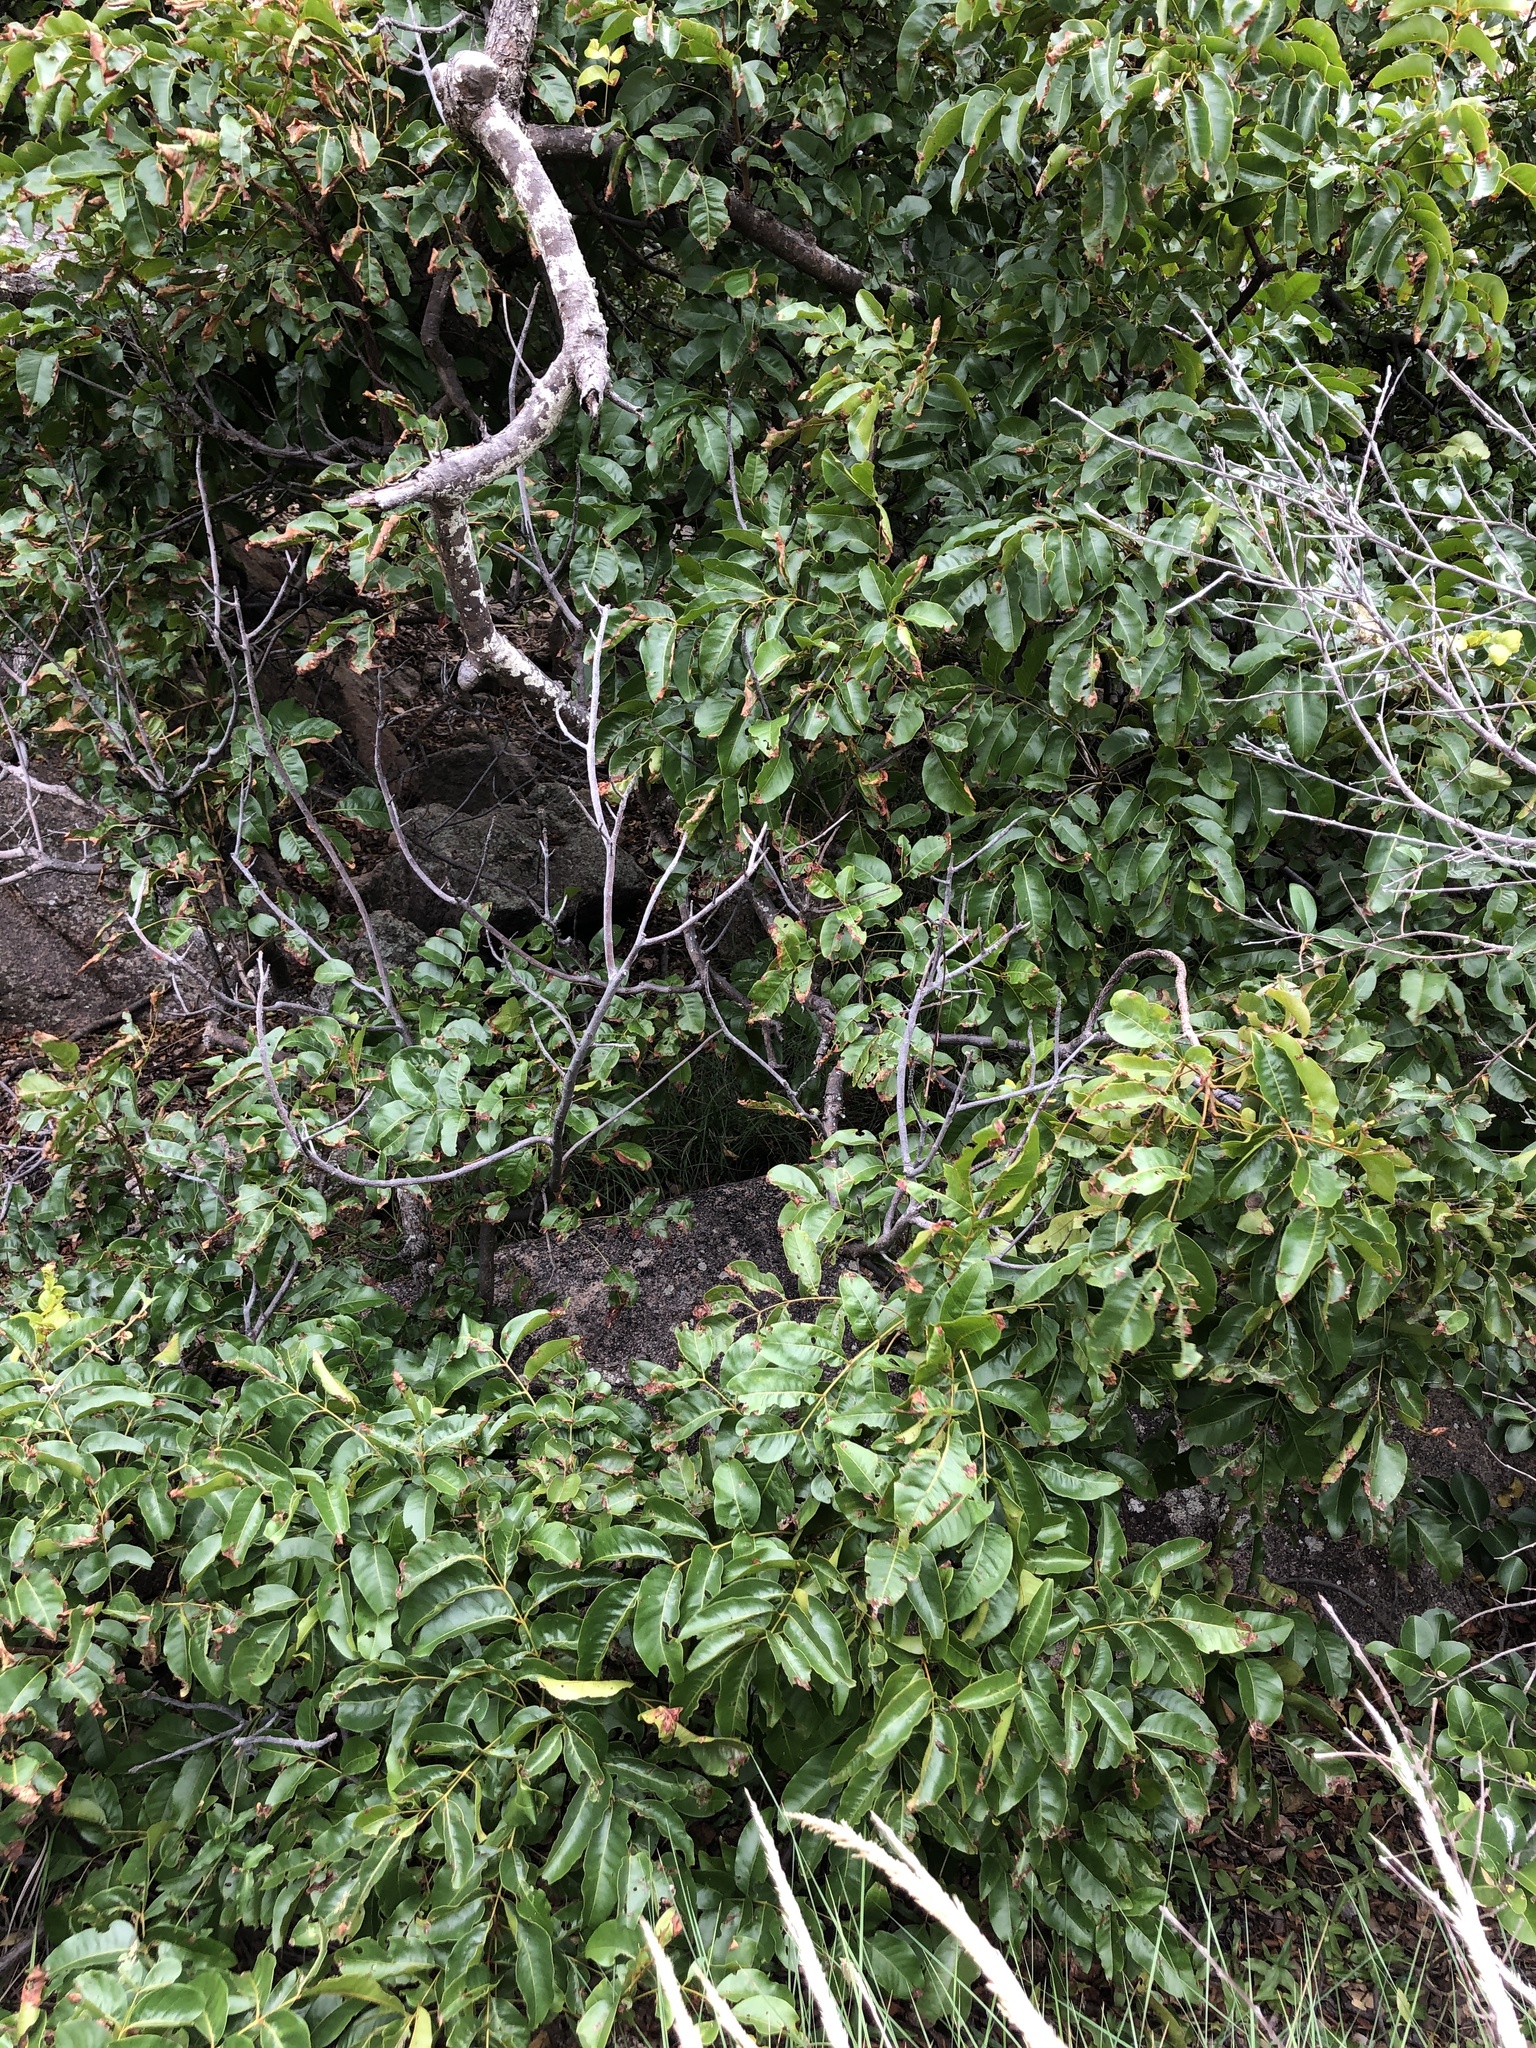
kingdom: Plantae
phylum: Tracheophyta
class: Magnoliopsida
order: Sapindales
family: Anacardiaceae
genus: Pleiogynium
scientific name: Pleiogynium timoriense
